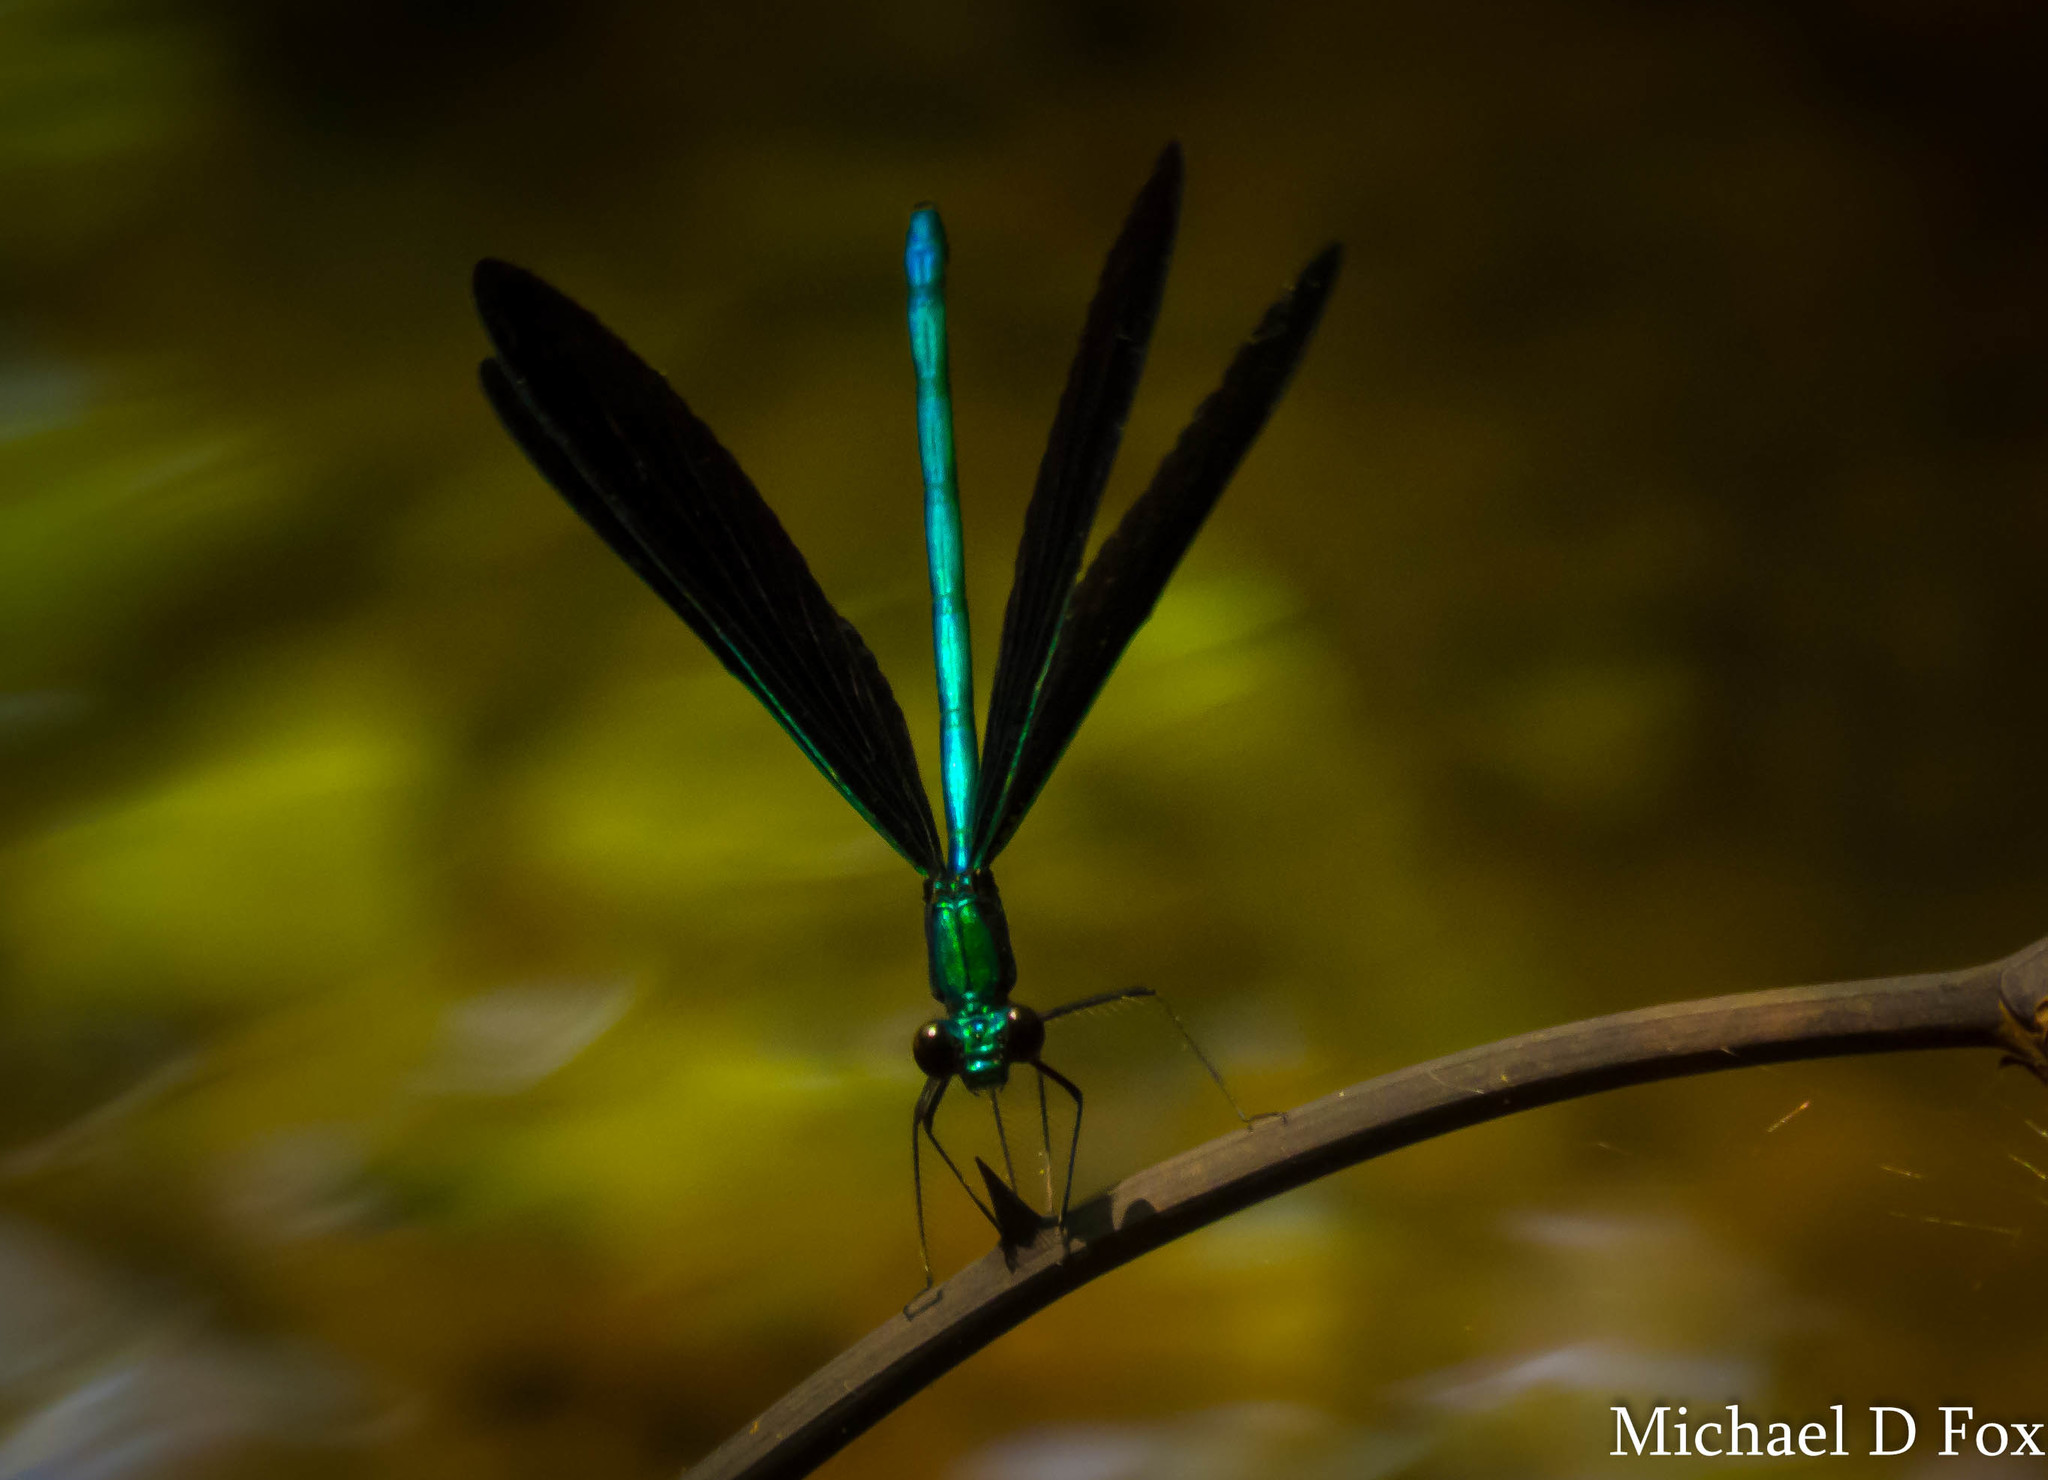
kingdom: Animalia
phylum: Arthropoda
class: Insecta
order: Odonata
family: Calopterygidae
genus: Calopteryx
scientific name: Calopteryx maculata
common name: Ebony jewelwing
